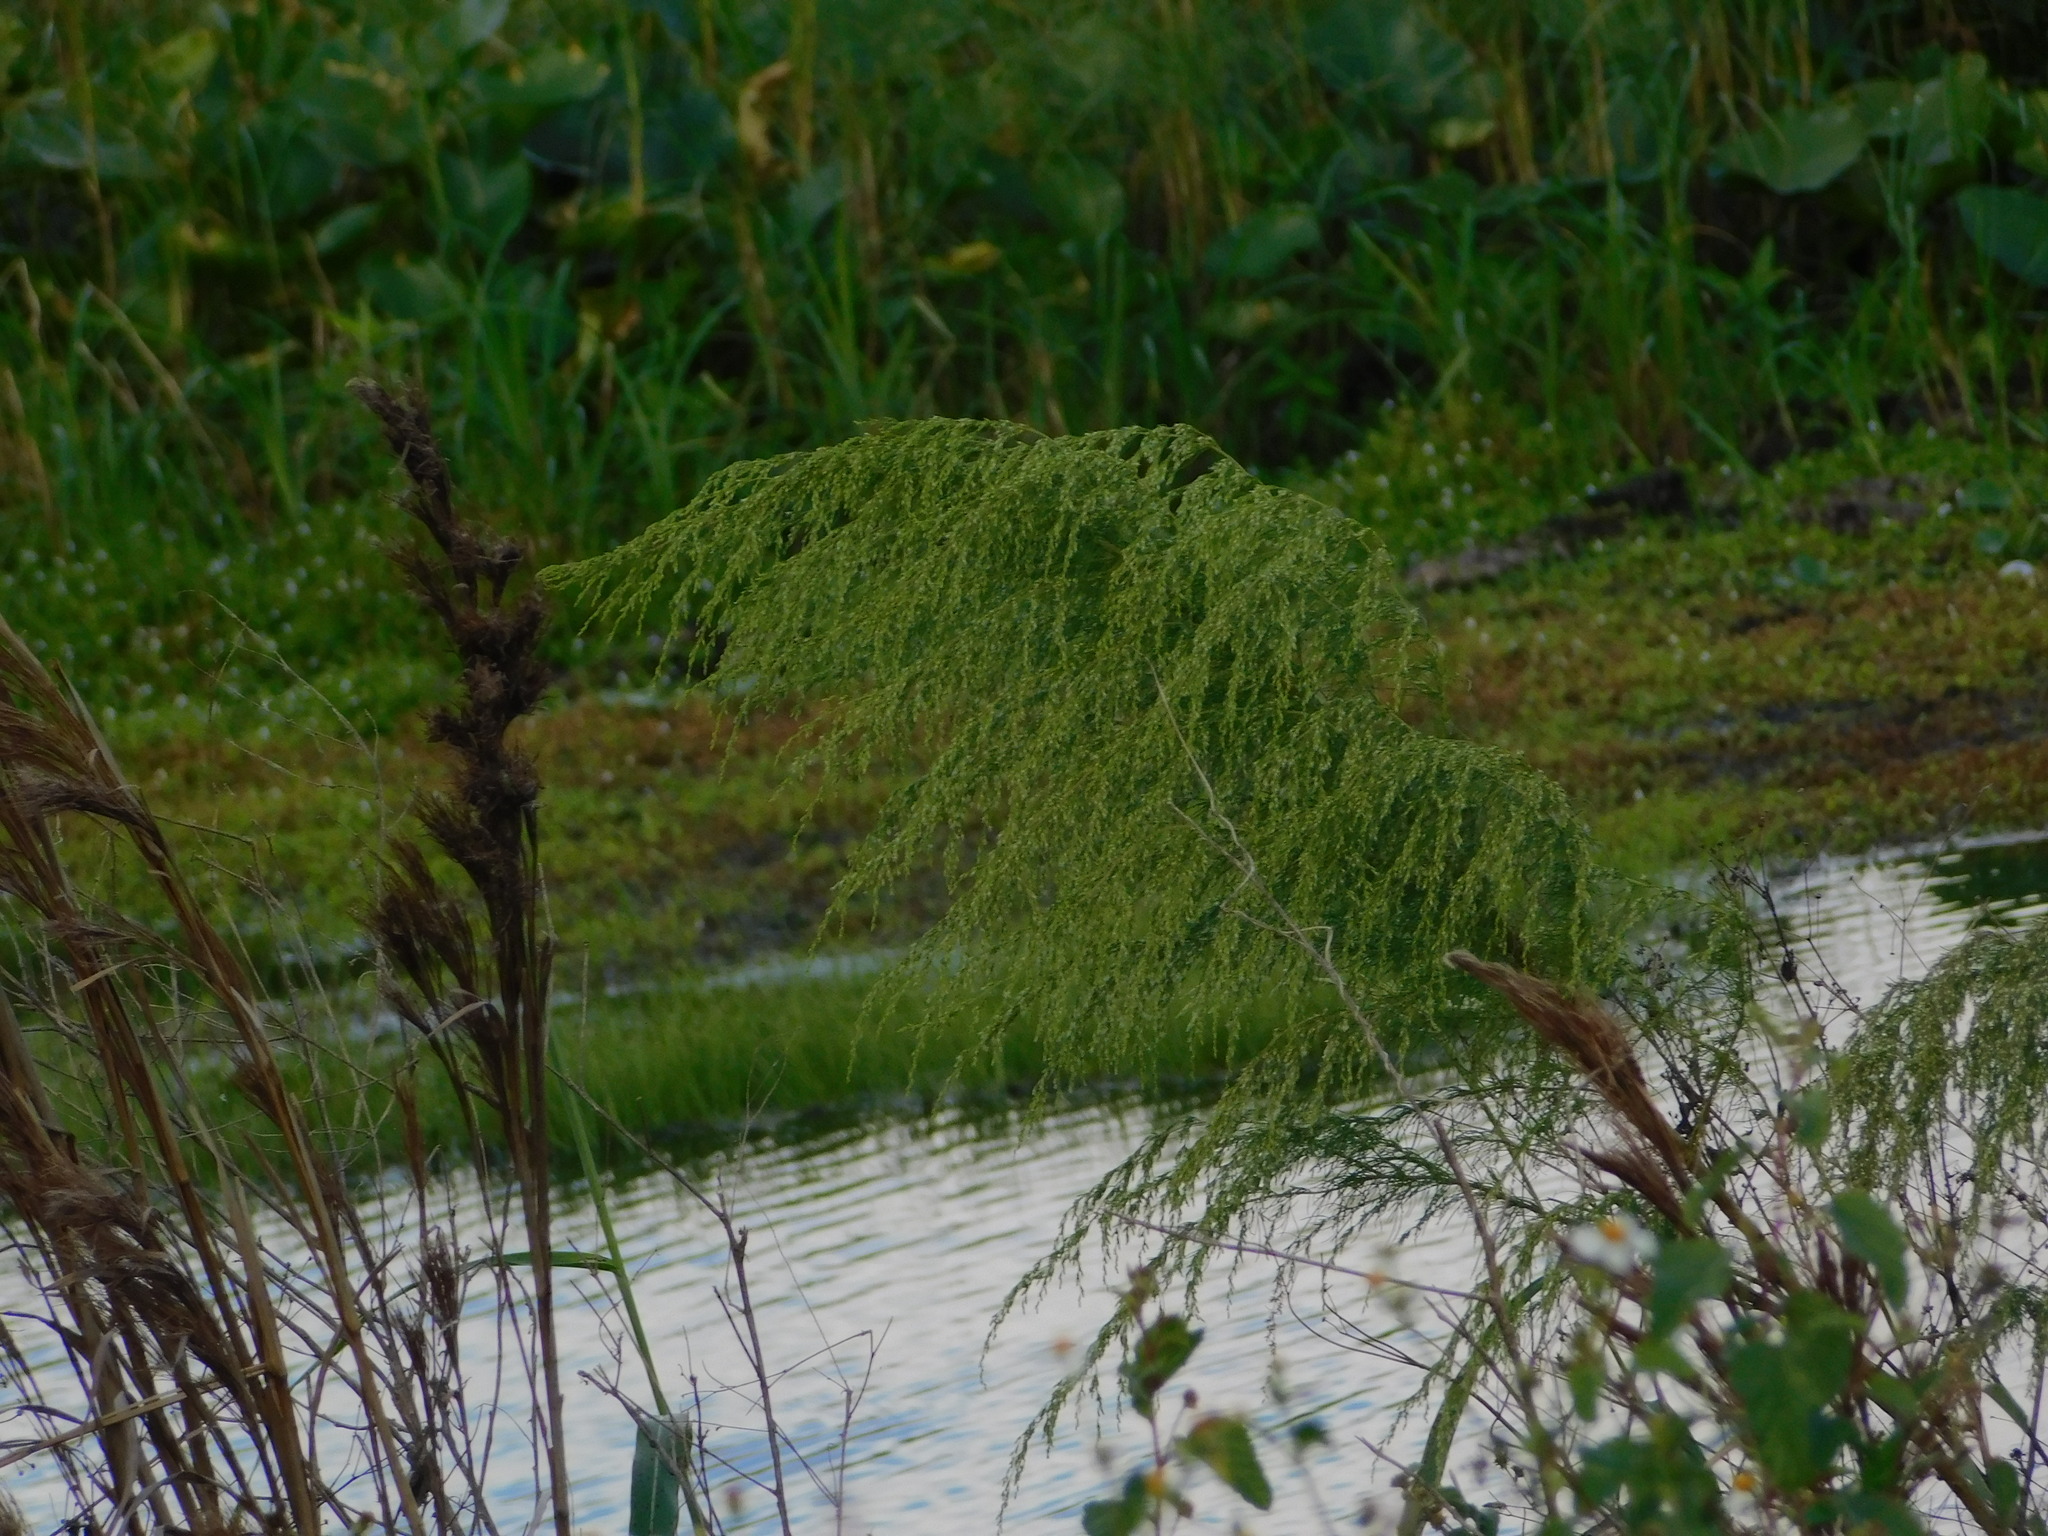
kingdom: Plantae
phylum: Tracheophyta
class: Magnoliopsida
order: Asterales
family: Asteraceae
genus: Eupatorium
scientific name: Eupatorium capillifolium
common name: Dog-fennel
